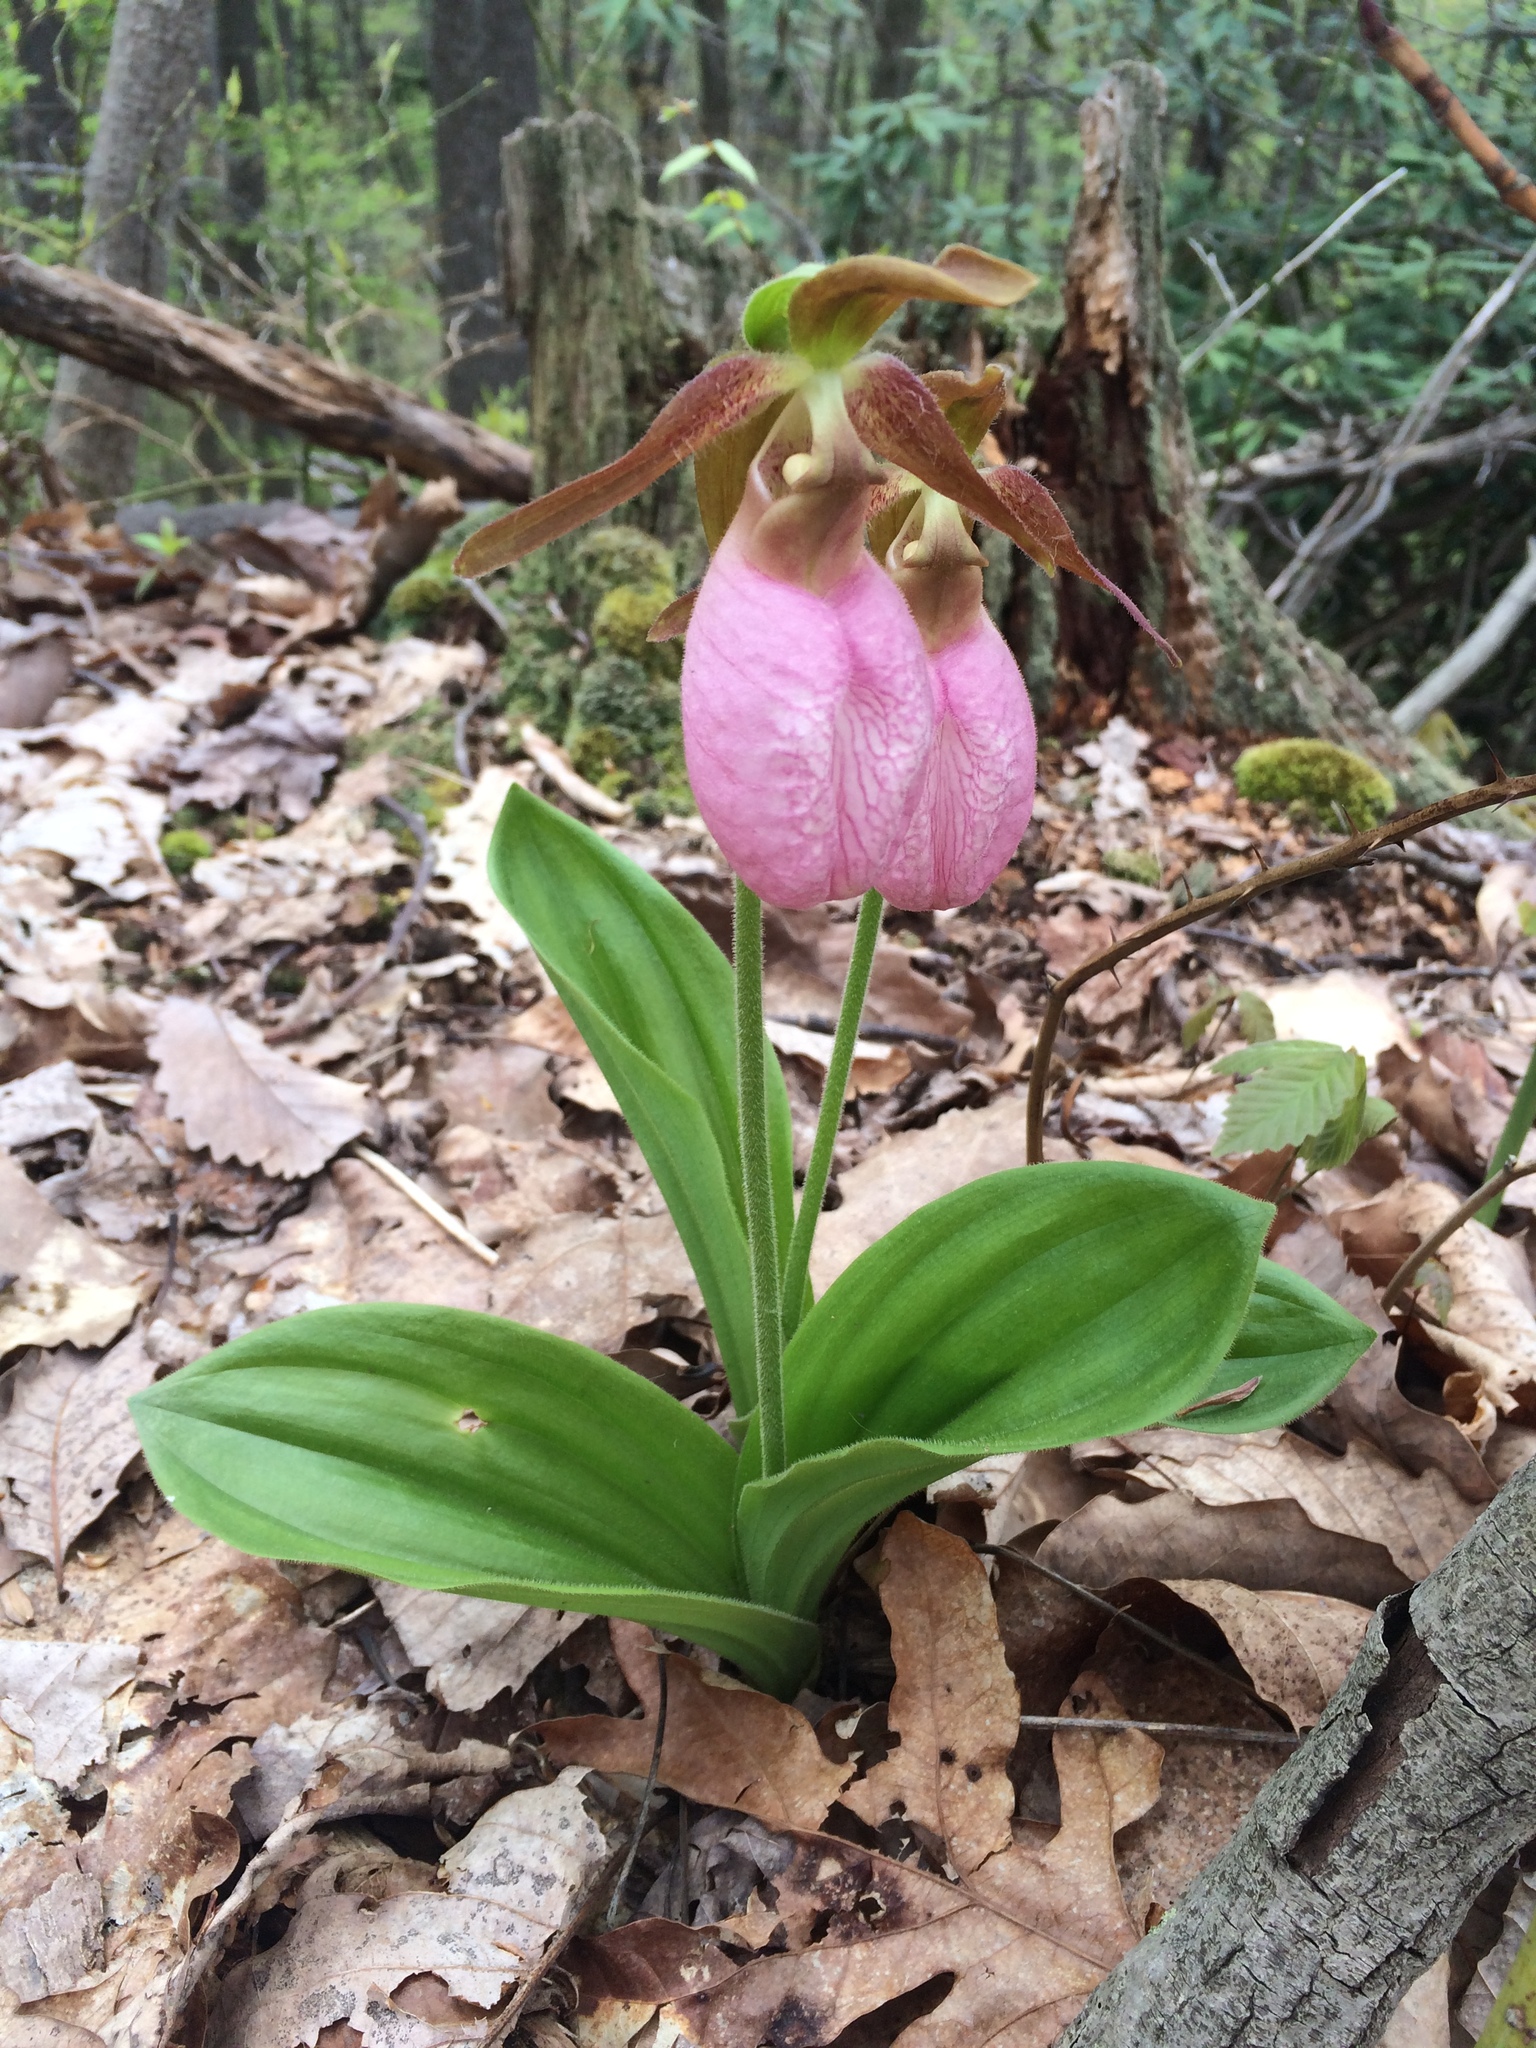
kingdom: Plantae
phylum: Tracheophyta
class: Liliopsida
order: Asparagales
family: Orchidaceae
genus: Cypripedium
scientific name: Cypripedium acaule
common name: Pink lady's-slipper
